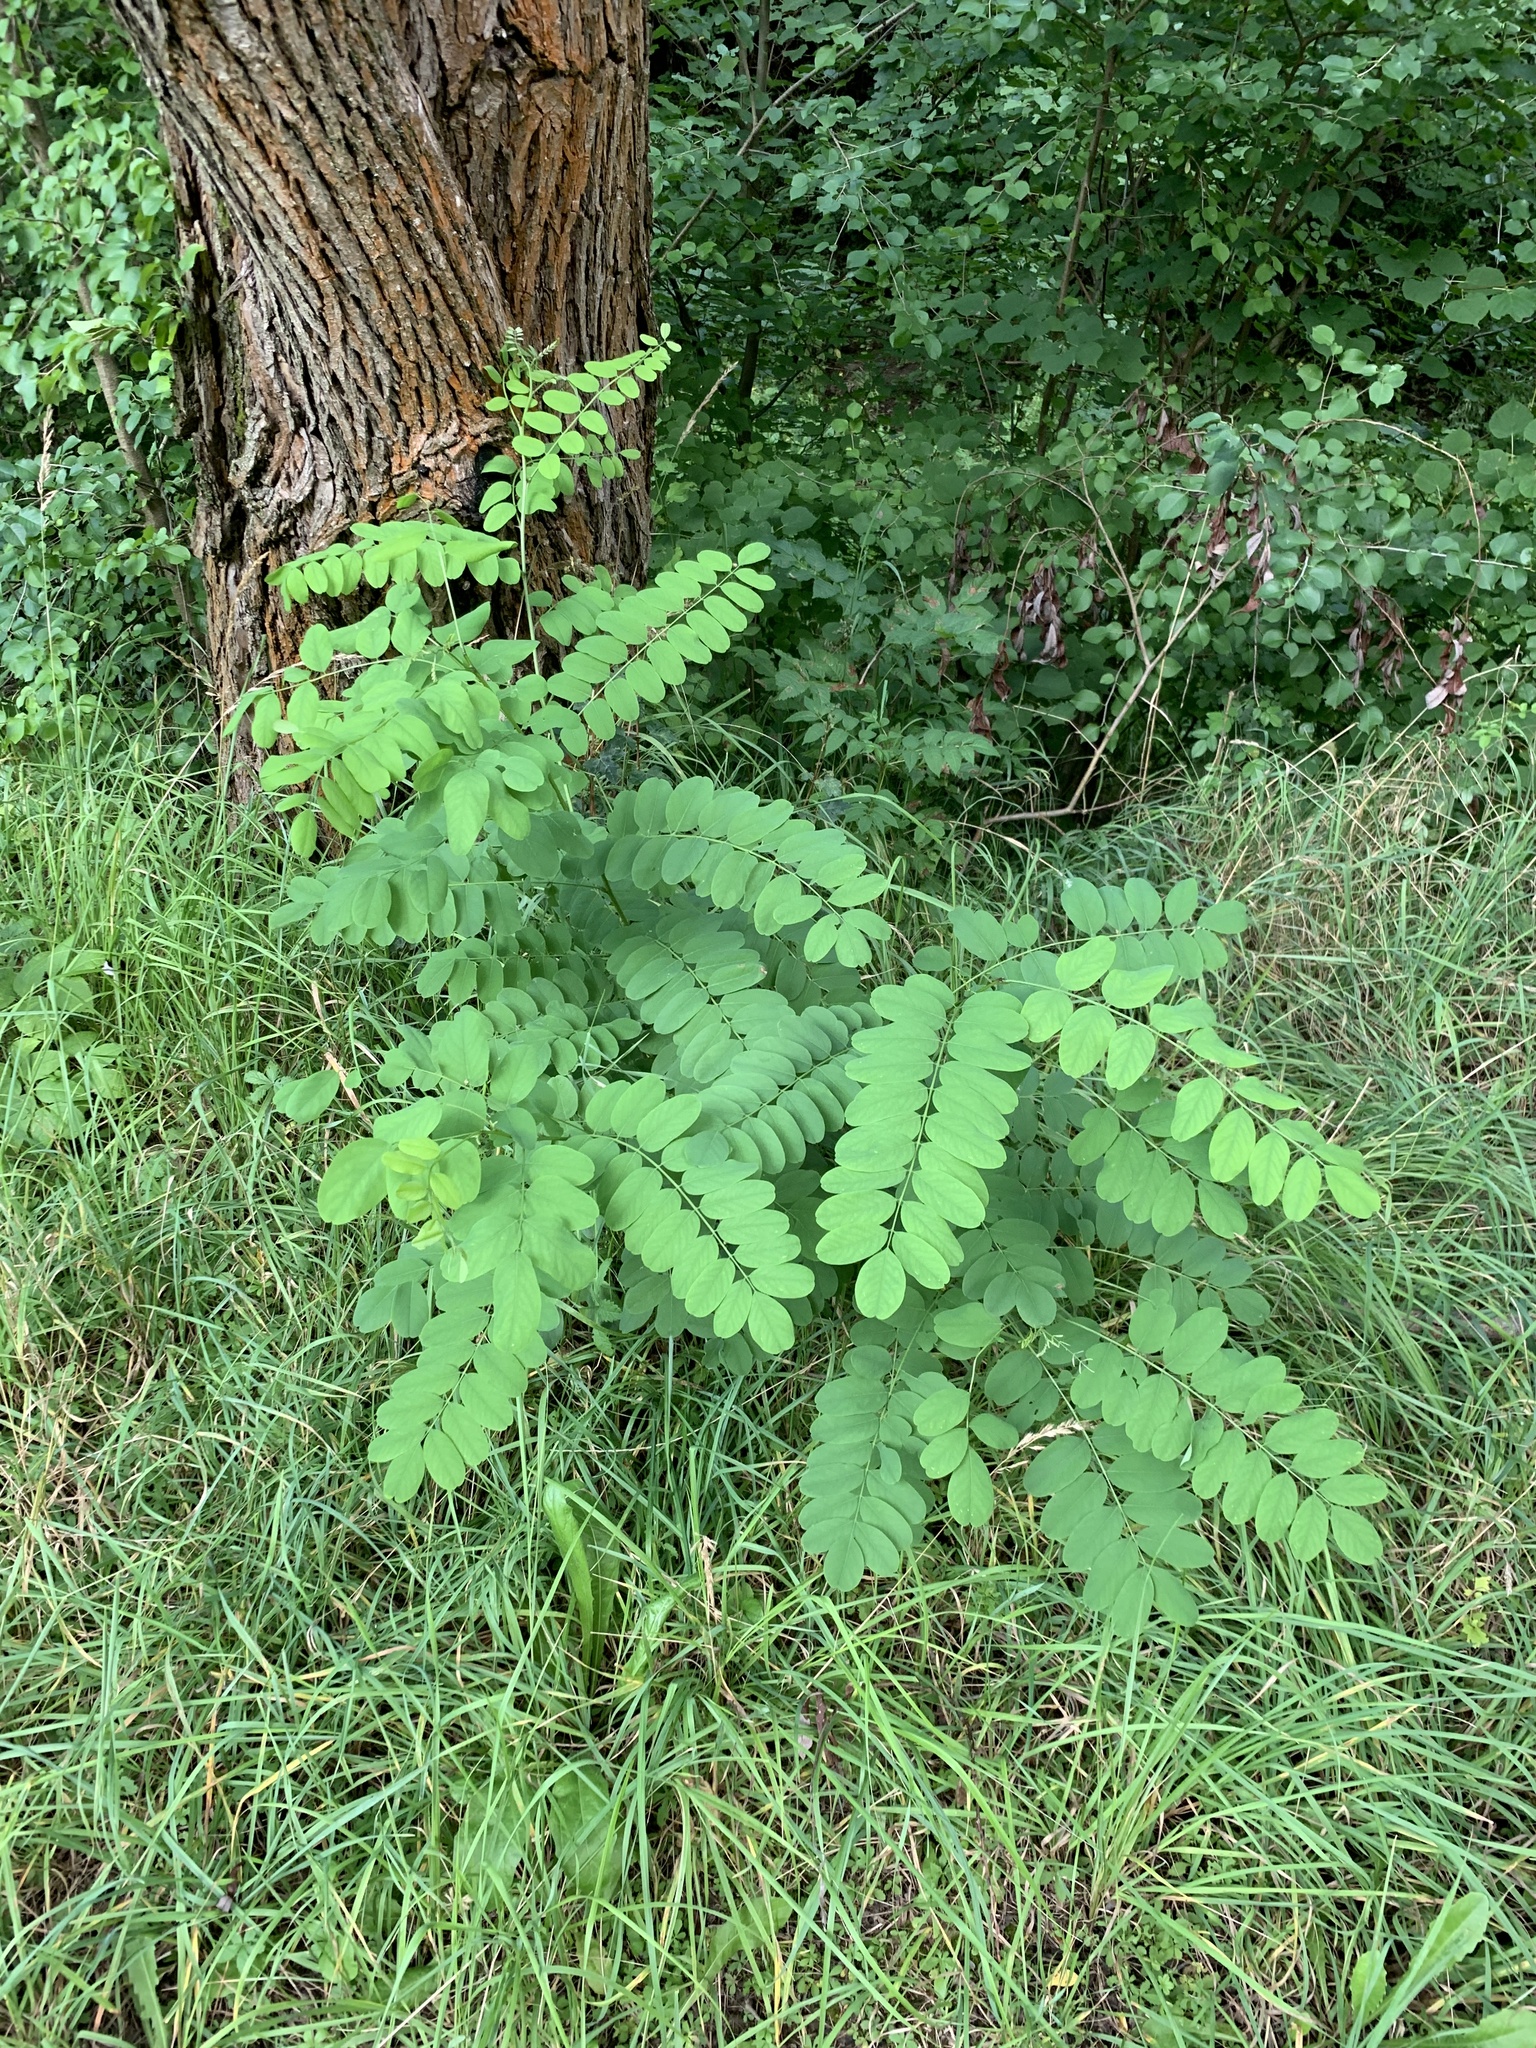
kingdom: Plantae
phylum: Tracheophyta
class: Magnoliopsida
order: Fabales
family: Fabaceae
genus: Robinia
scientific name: Robinia pseudoacacia
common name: Black locust
